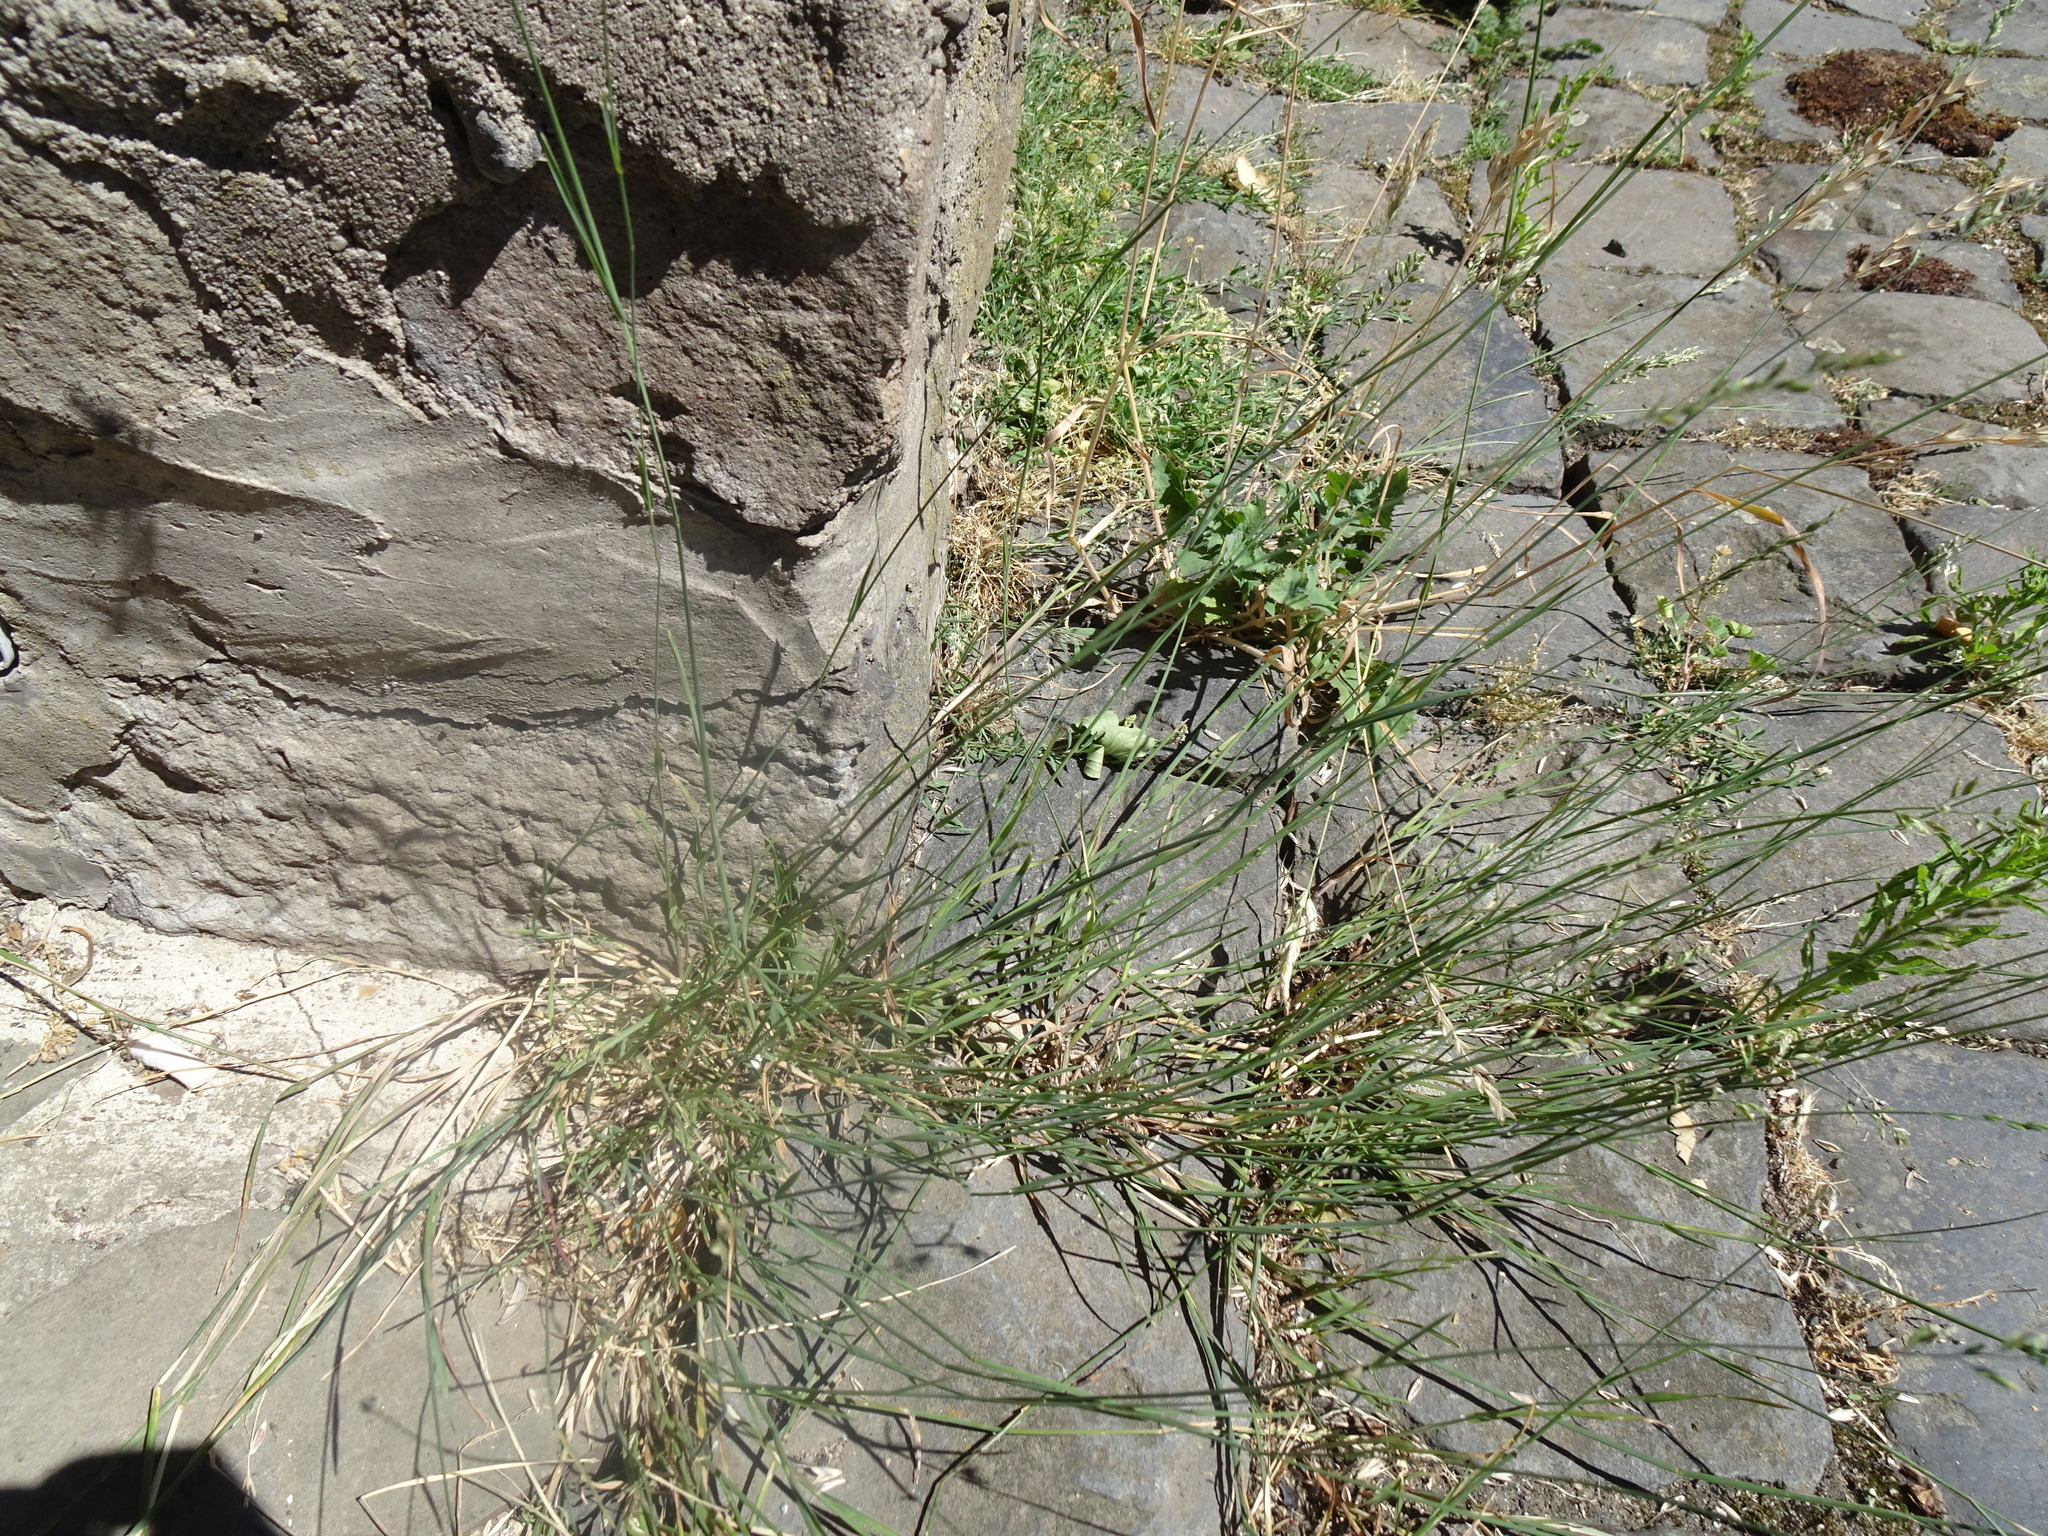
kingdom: Plantae
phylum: Tracheophyta
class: Liliopsida
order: Poales
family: Poaceae
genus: Poa
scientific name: Poa compressa
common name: Canada bluegrass
